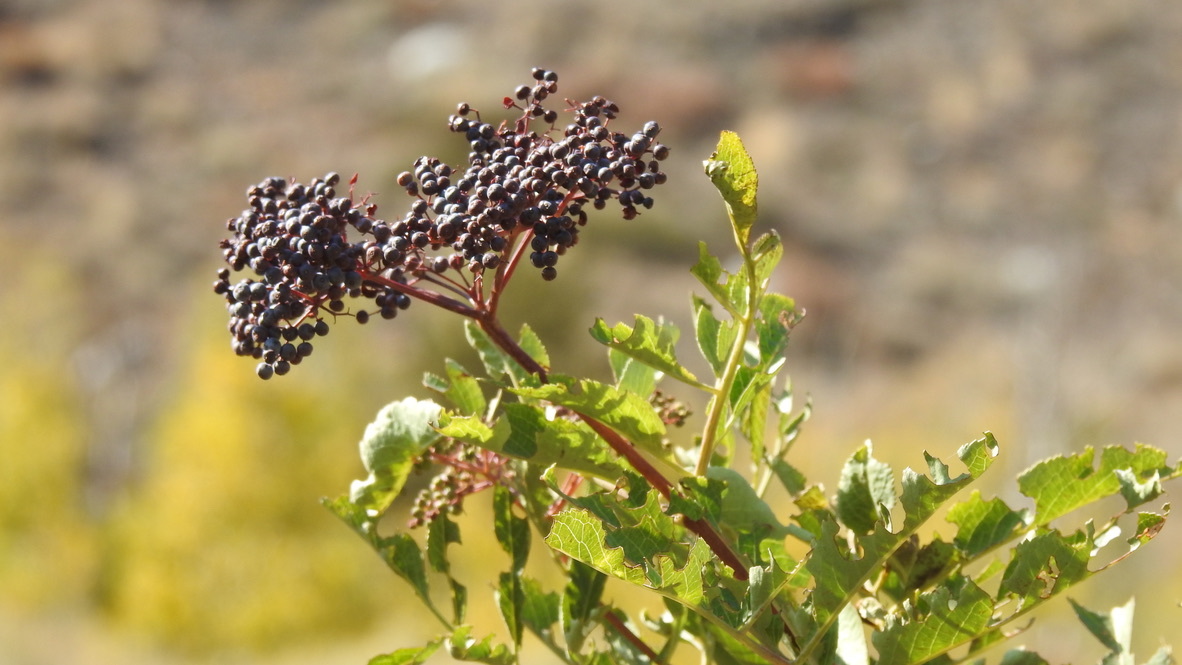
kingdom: Plantae
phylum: Tracheophyta
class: Magnoliopsida
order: Dipsacales
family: Viburnaceae
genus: Sambucus
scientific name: Sambucus cerulea
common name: Blue elder
